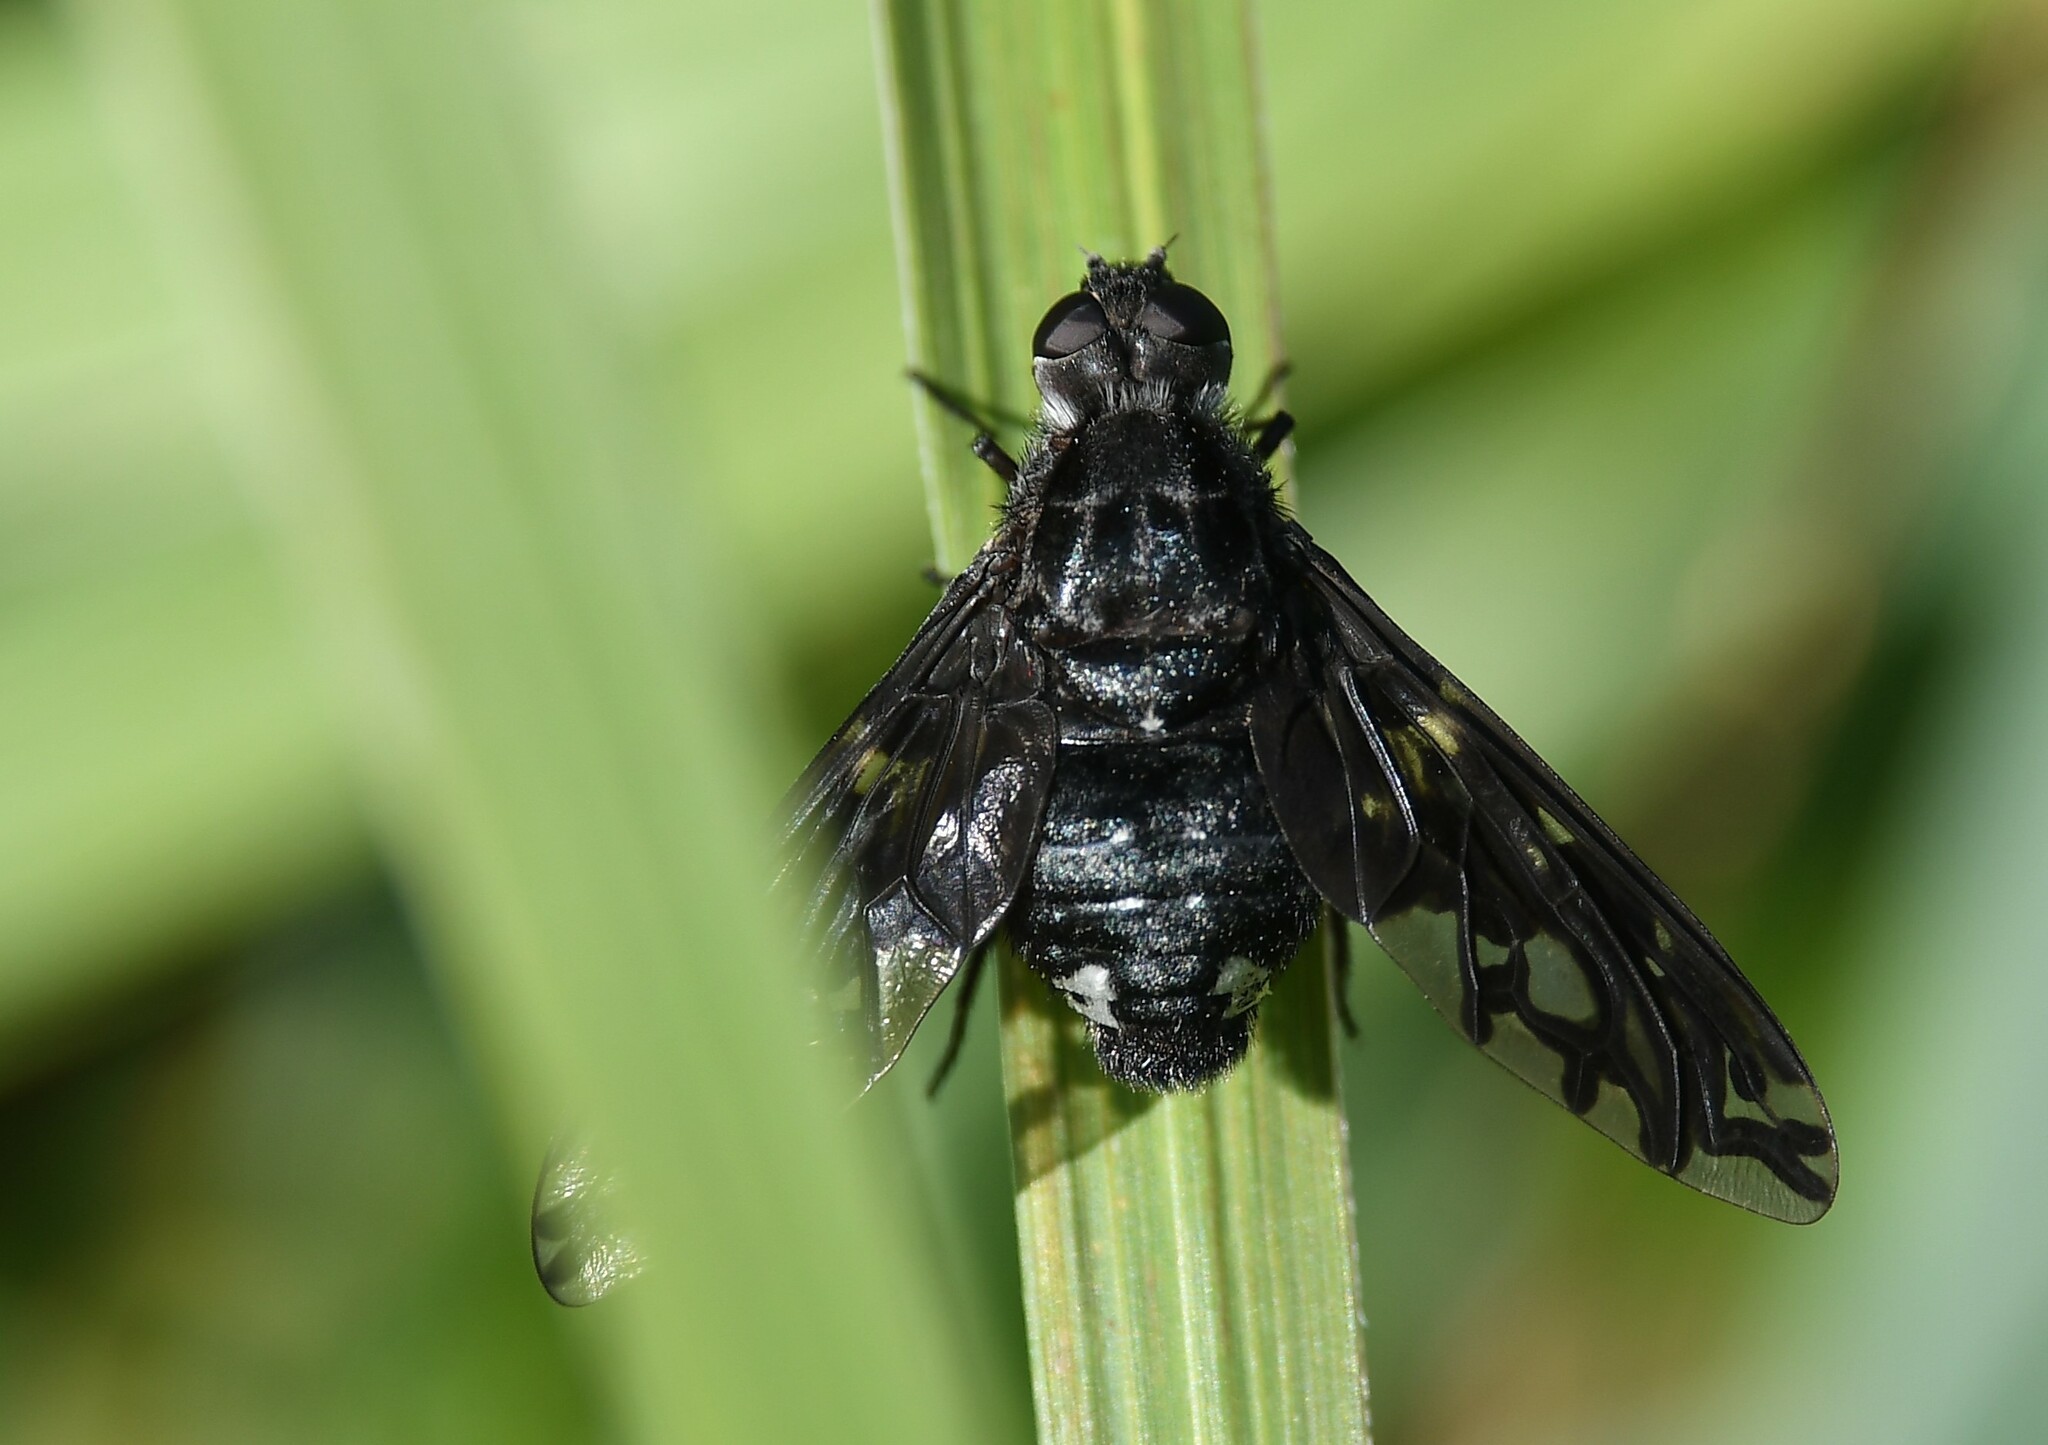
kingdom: Animalia
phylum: Arthropoda
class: Insecta
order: Diptera
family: Bombyliidae
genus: Xenox
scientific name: Xenox tigrinus
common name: Tiger bee fly
